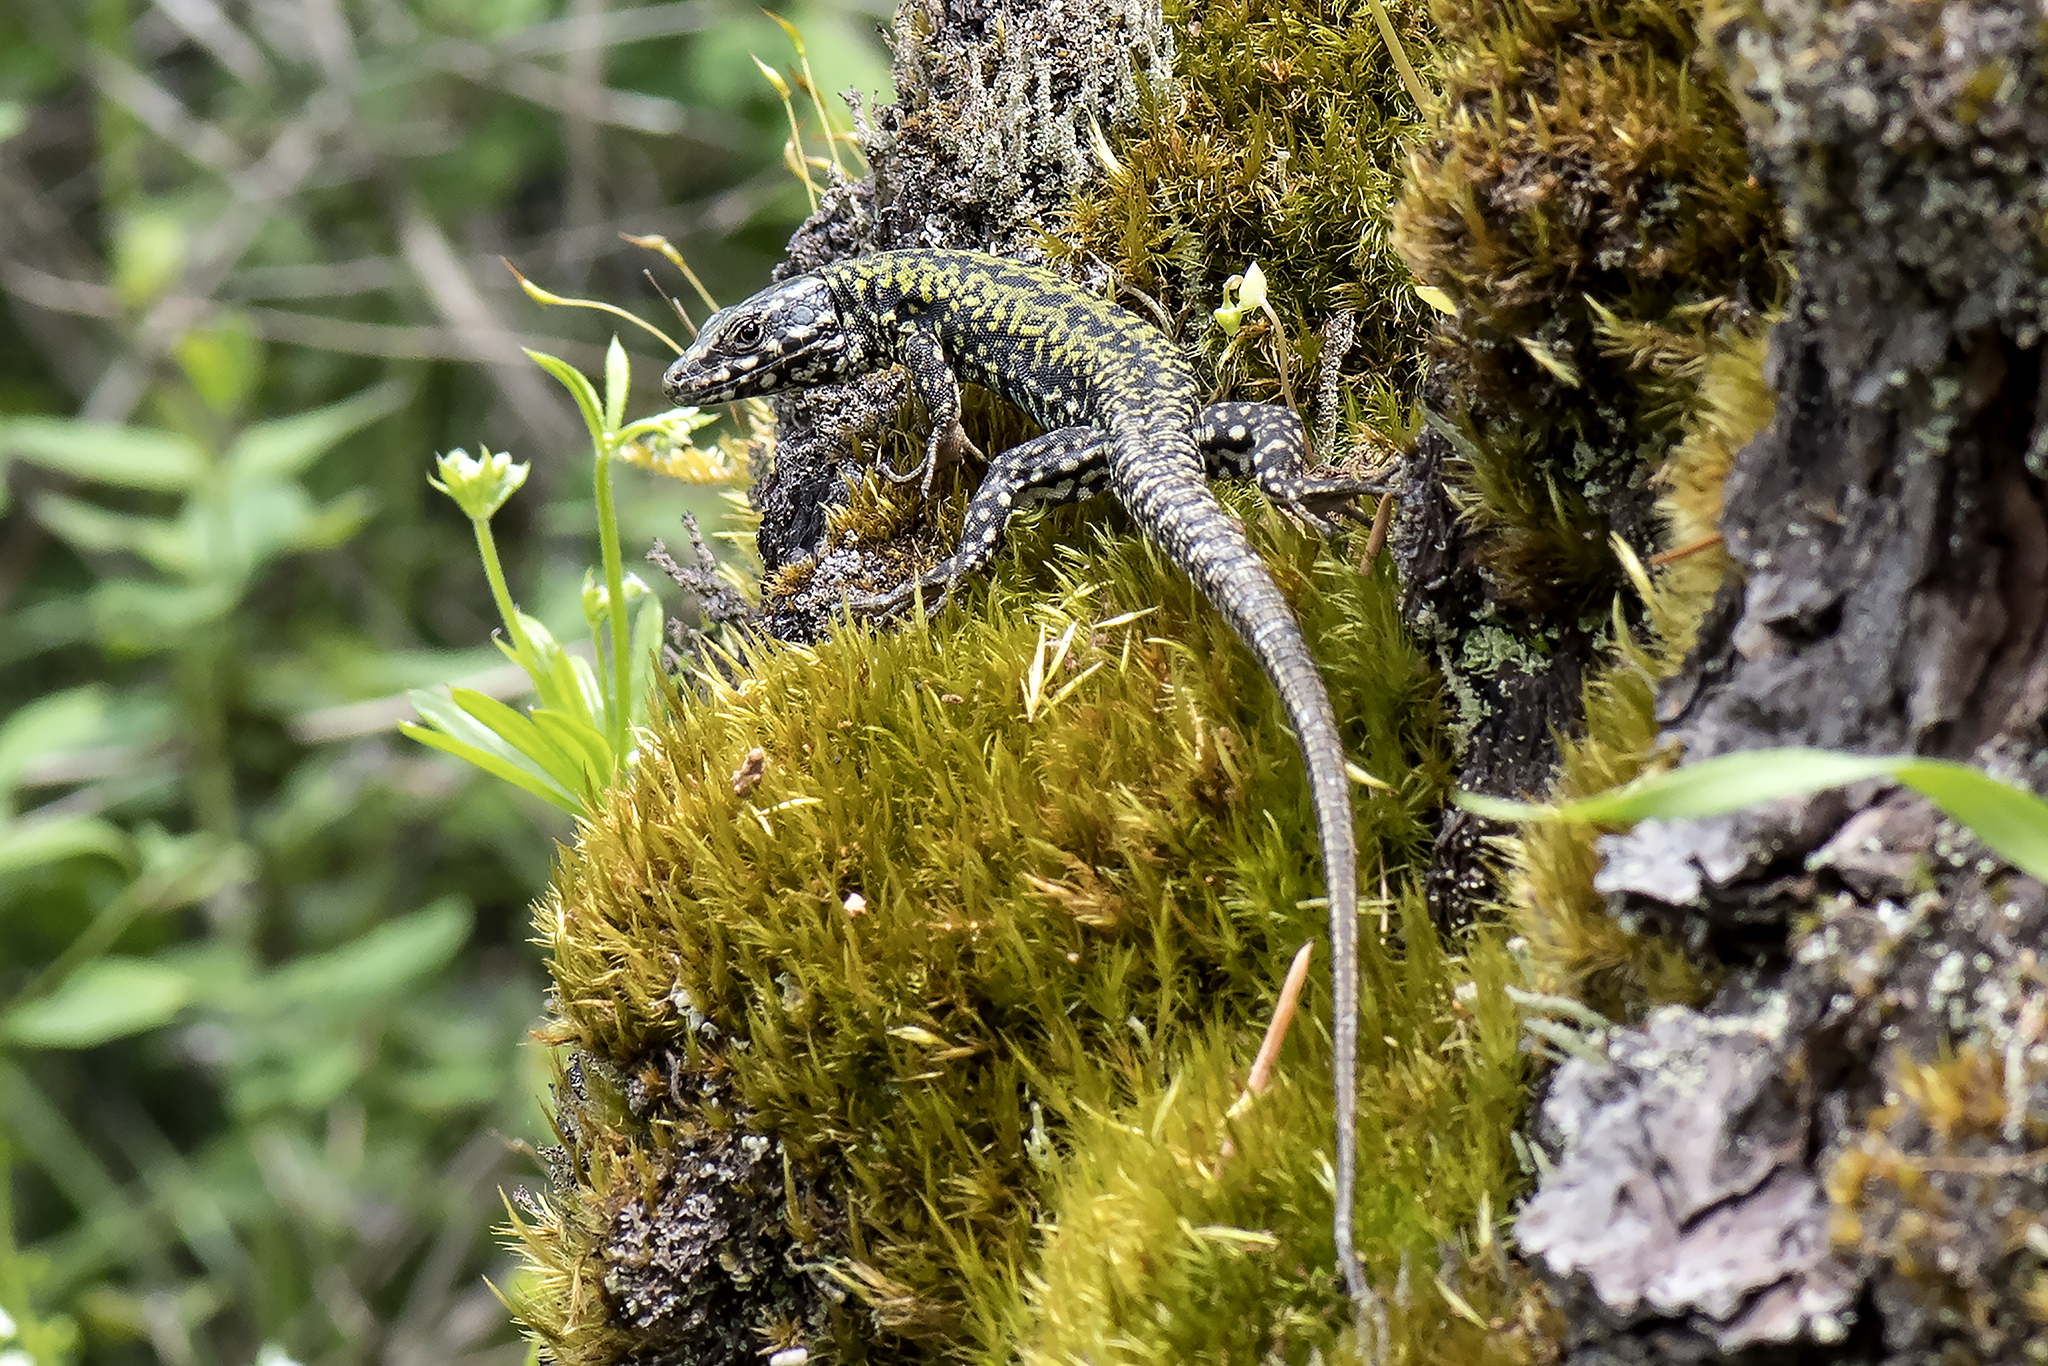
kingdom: Animalia
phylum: Chordata
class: Squamata
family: Lacertidae
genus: Podarcis
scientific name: Podarcis muralis
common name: Common wall lizard
